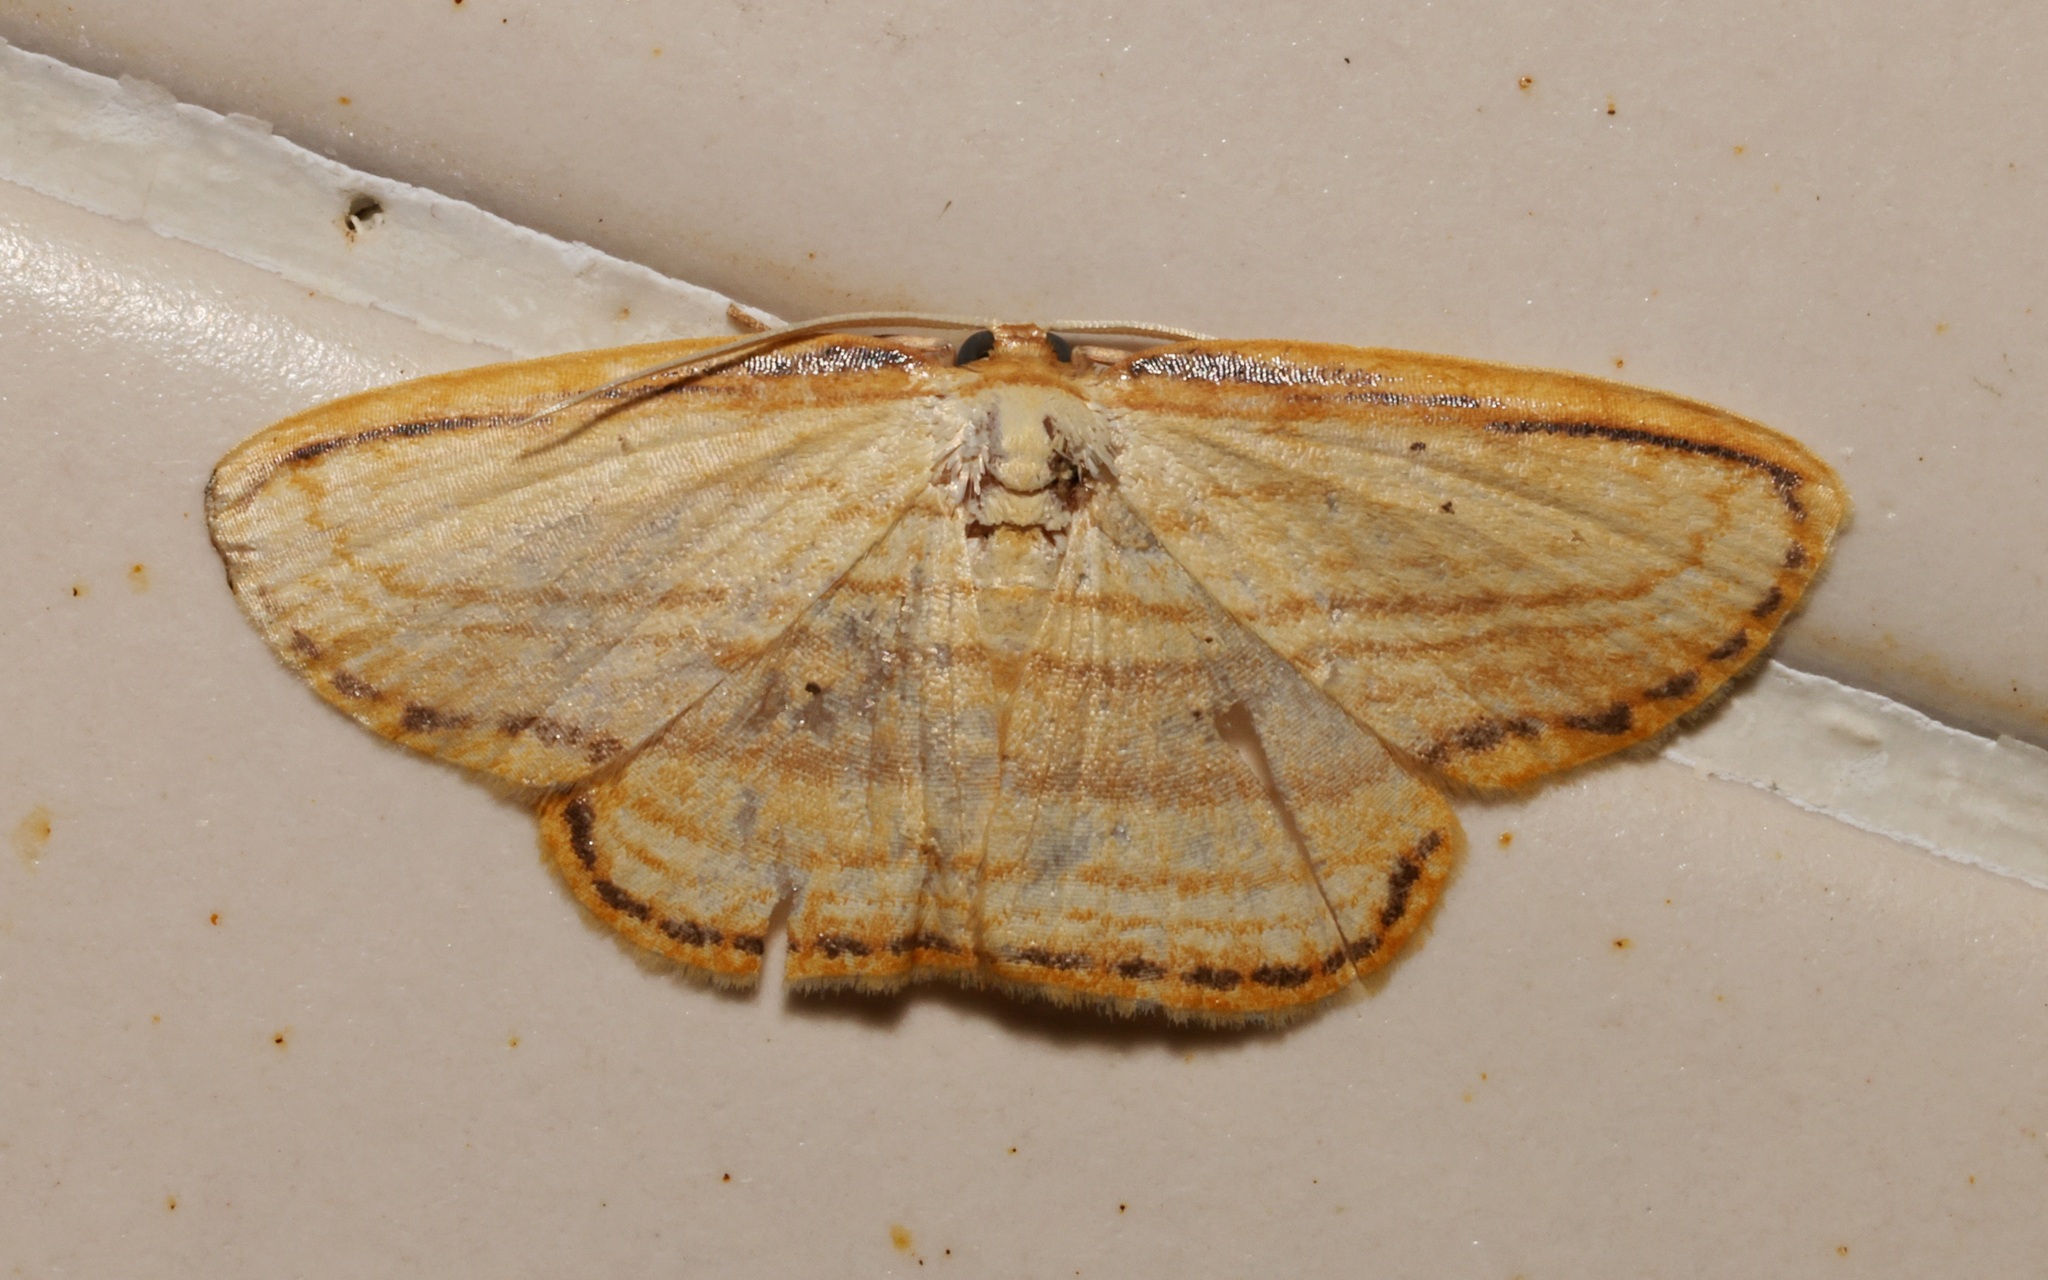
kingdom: Animalia
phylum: Arthropoda
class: Insecta
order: Lepidoptera
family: Drepanidae
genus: Drapetodes
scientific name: Drapetodes mitaria
